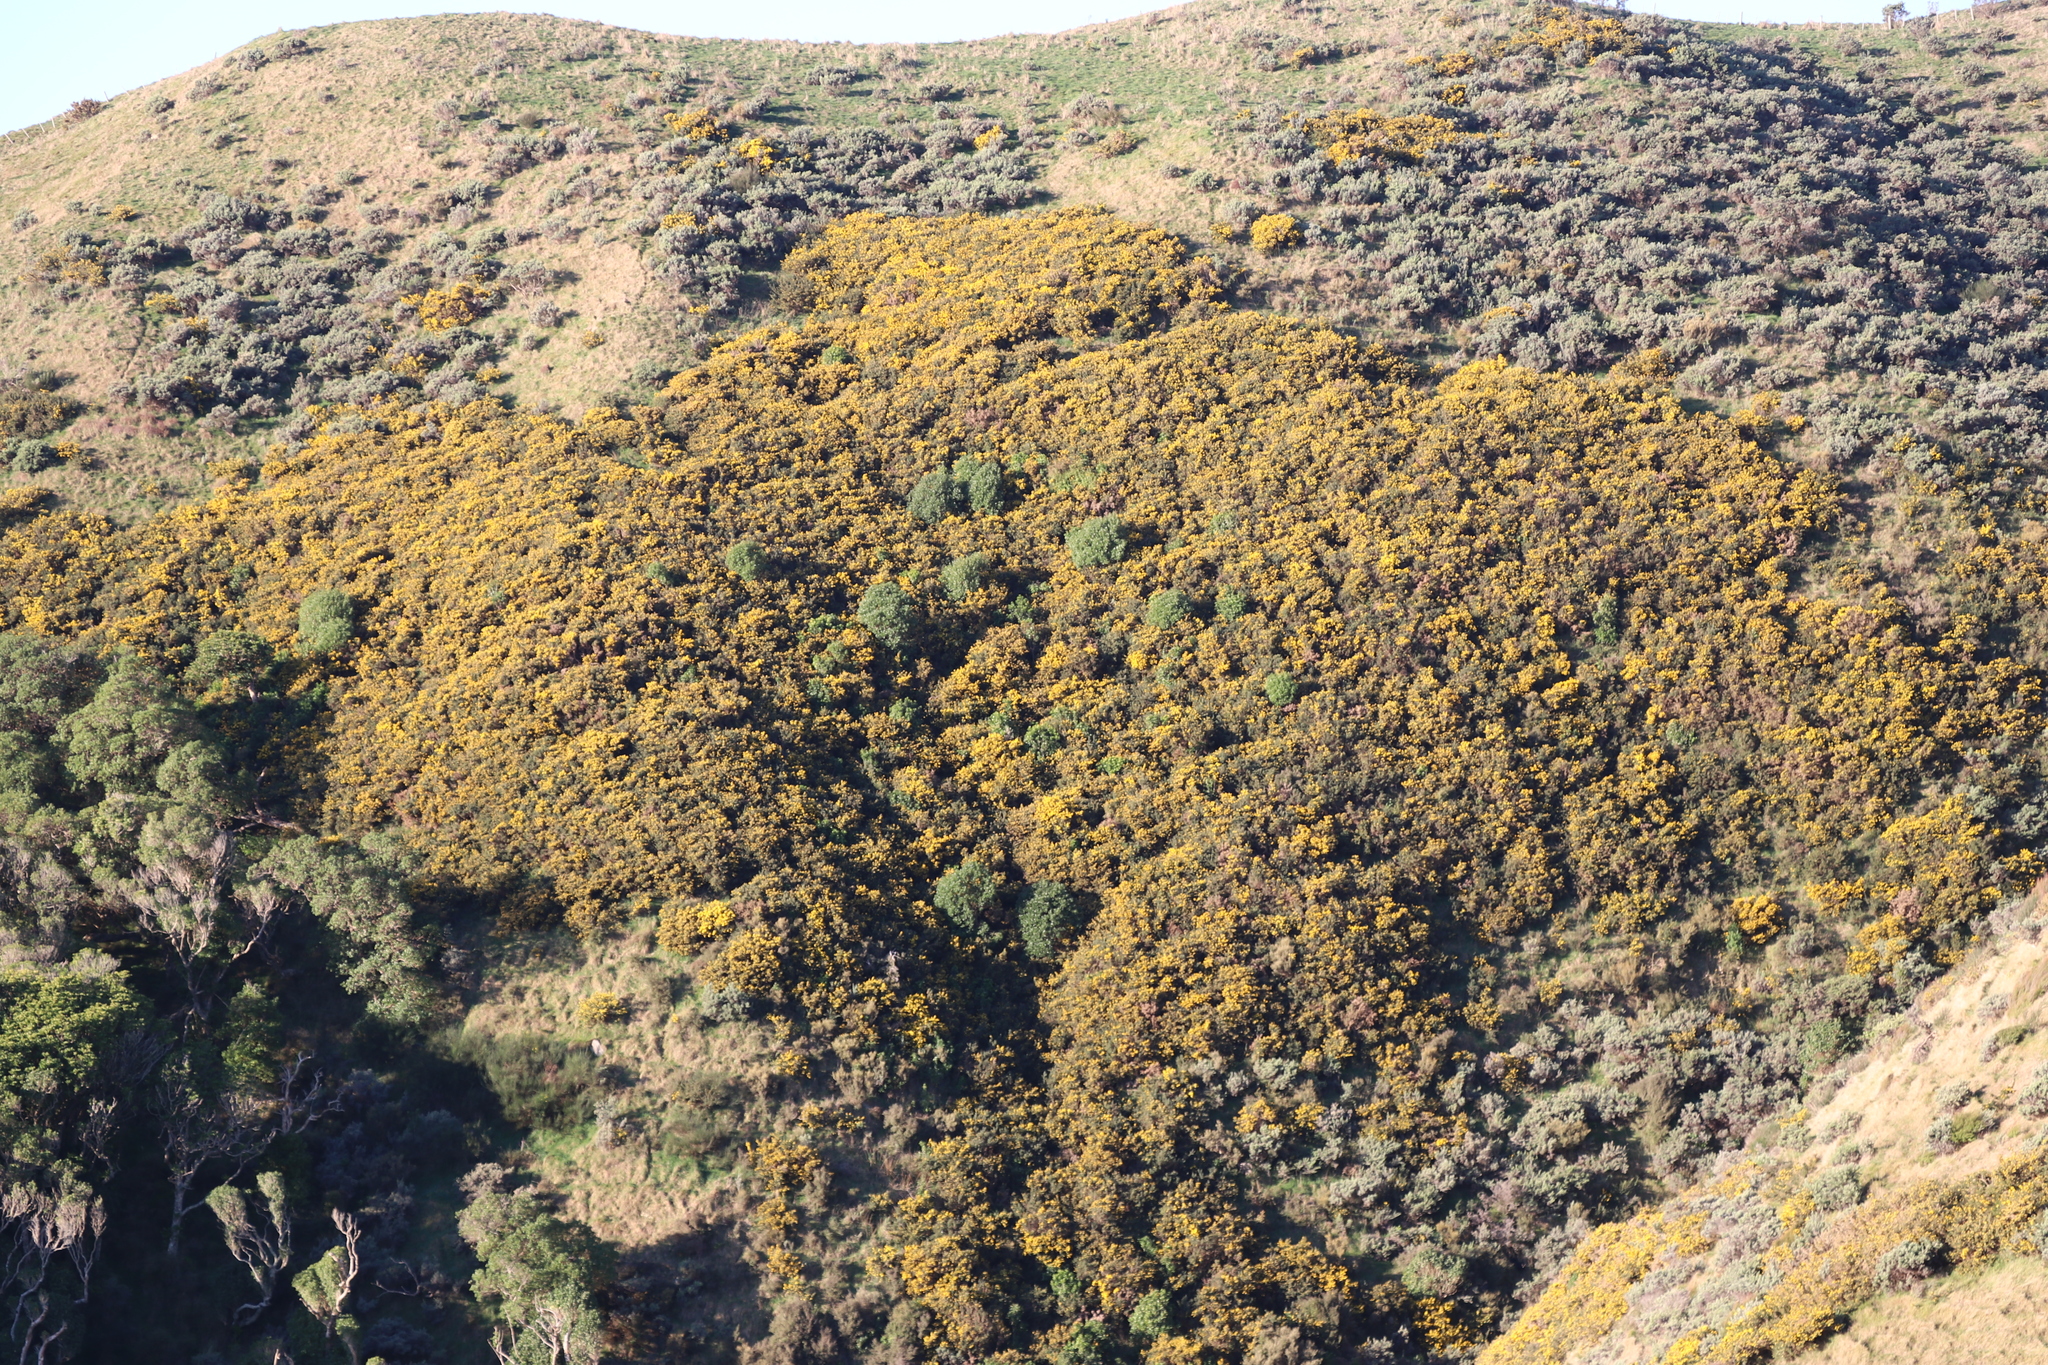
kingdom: Plantae
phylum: Tracheophyta
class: Magnoliopsida
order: Fabales
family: Fabaceae
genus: Ulex
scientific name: Ulex europaeus
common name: Common gorse
